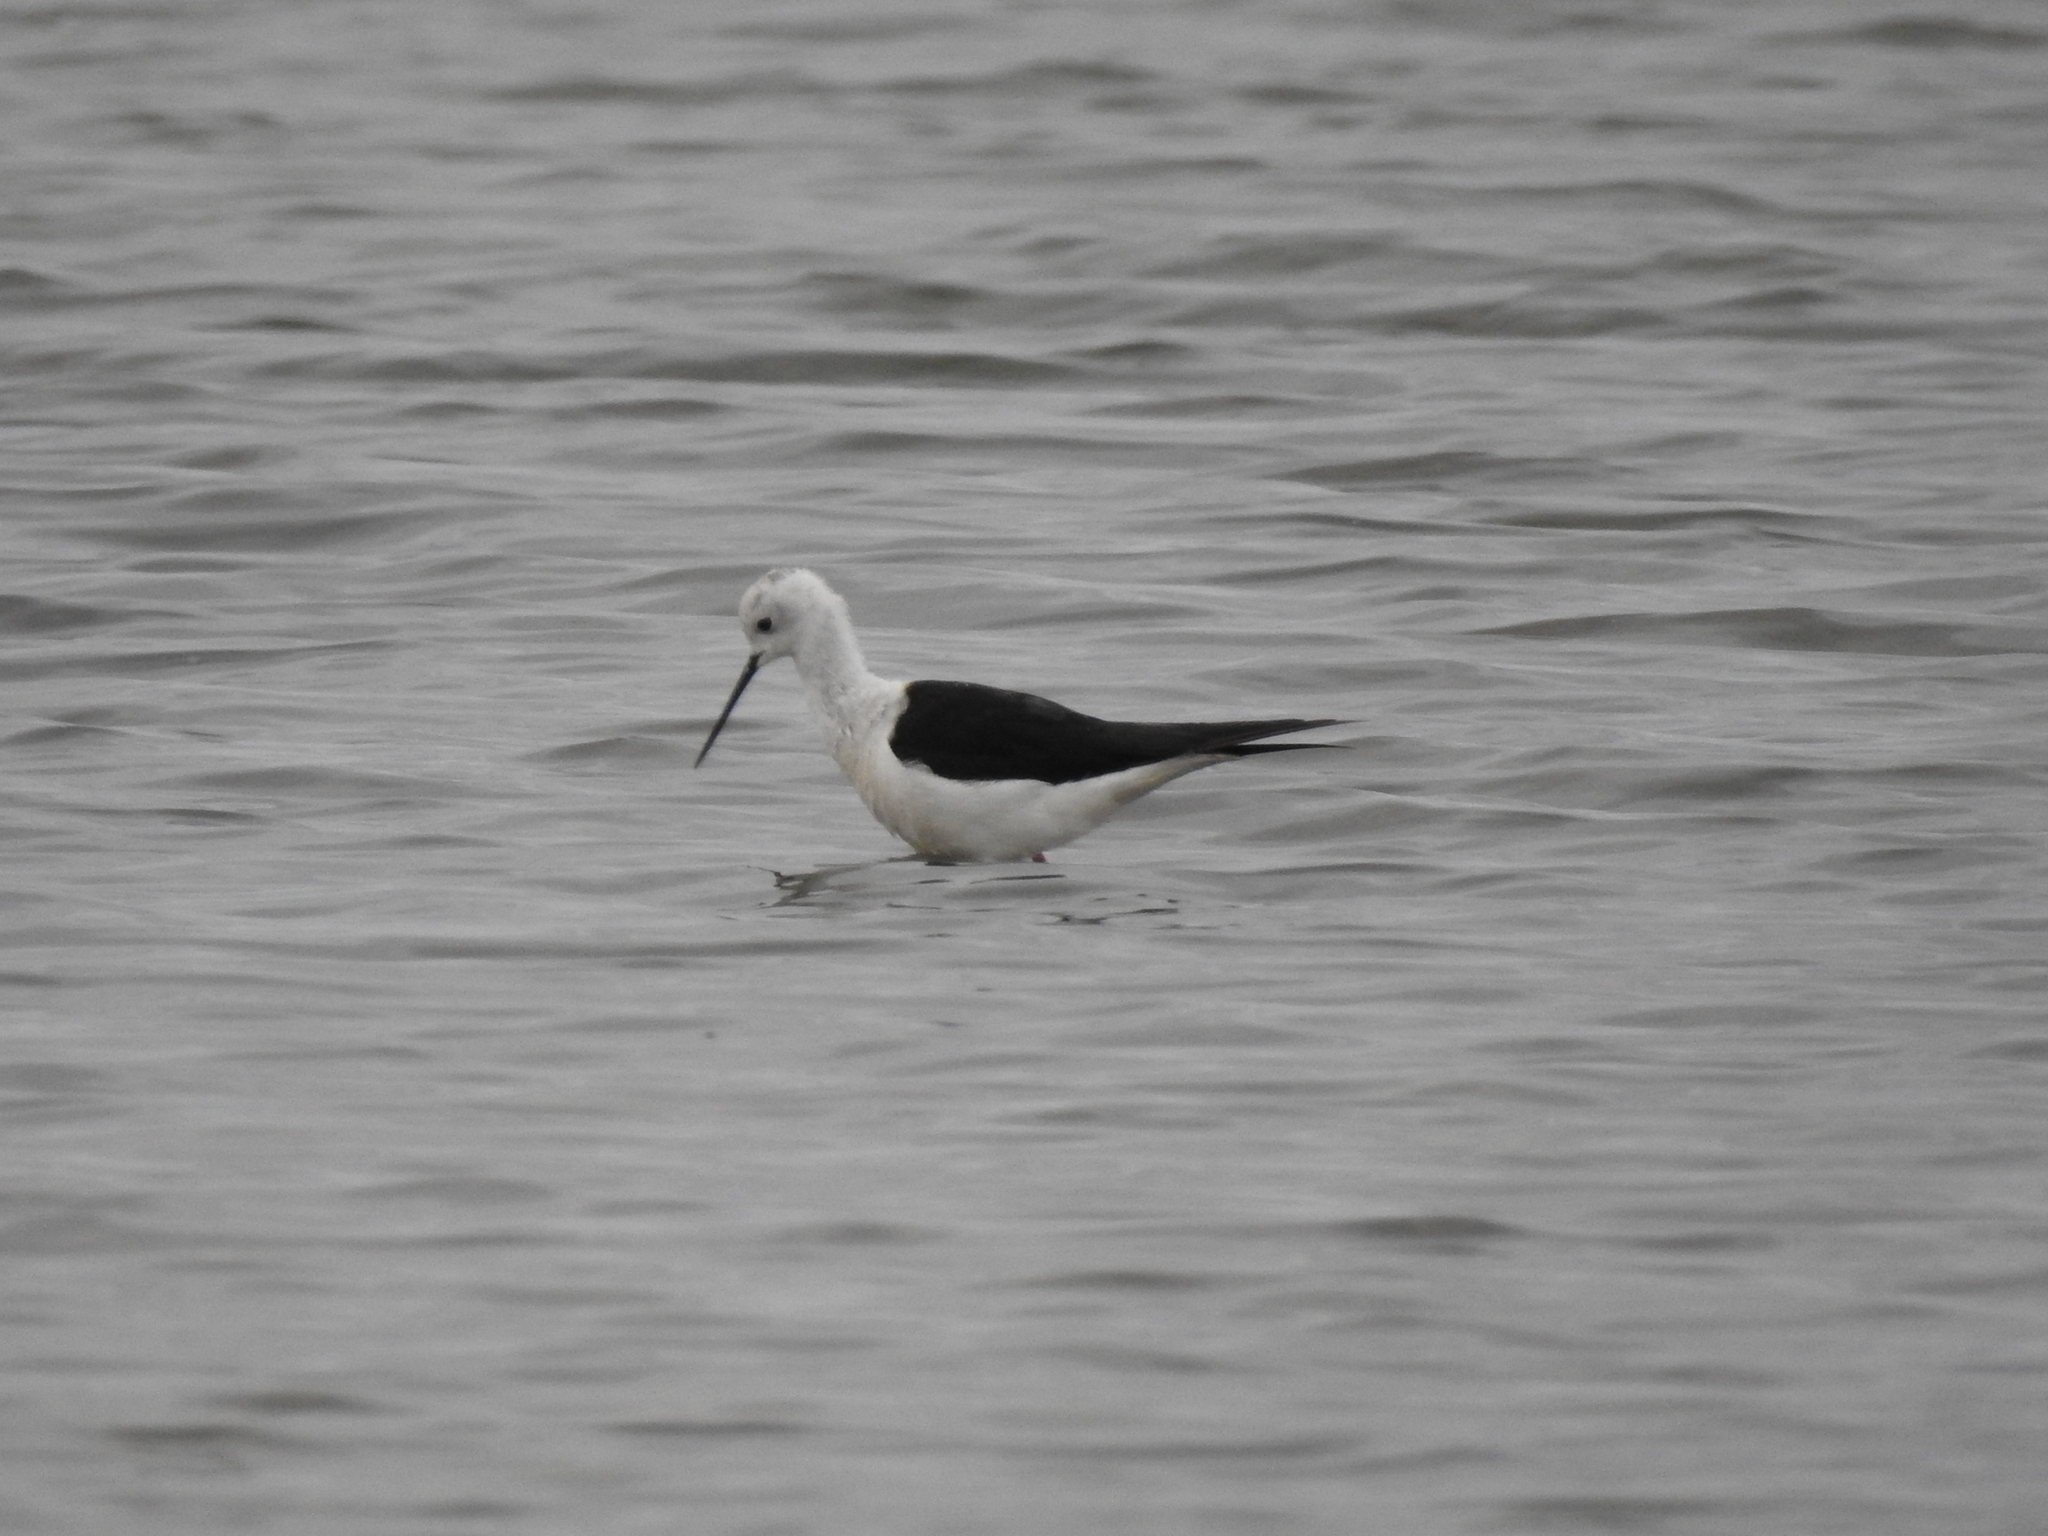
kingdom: Animalia
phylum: Chordata
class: Aves
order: Charadriiformes
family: Recurvirostridae
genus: Himantopus
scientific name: Himantopus himantopus
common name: Black-winged stilt
